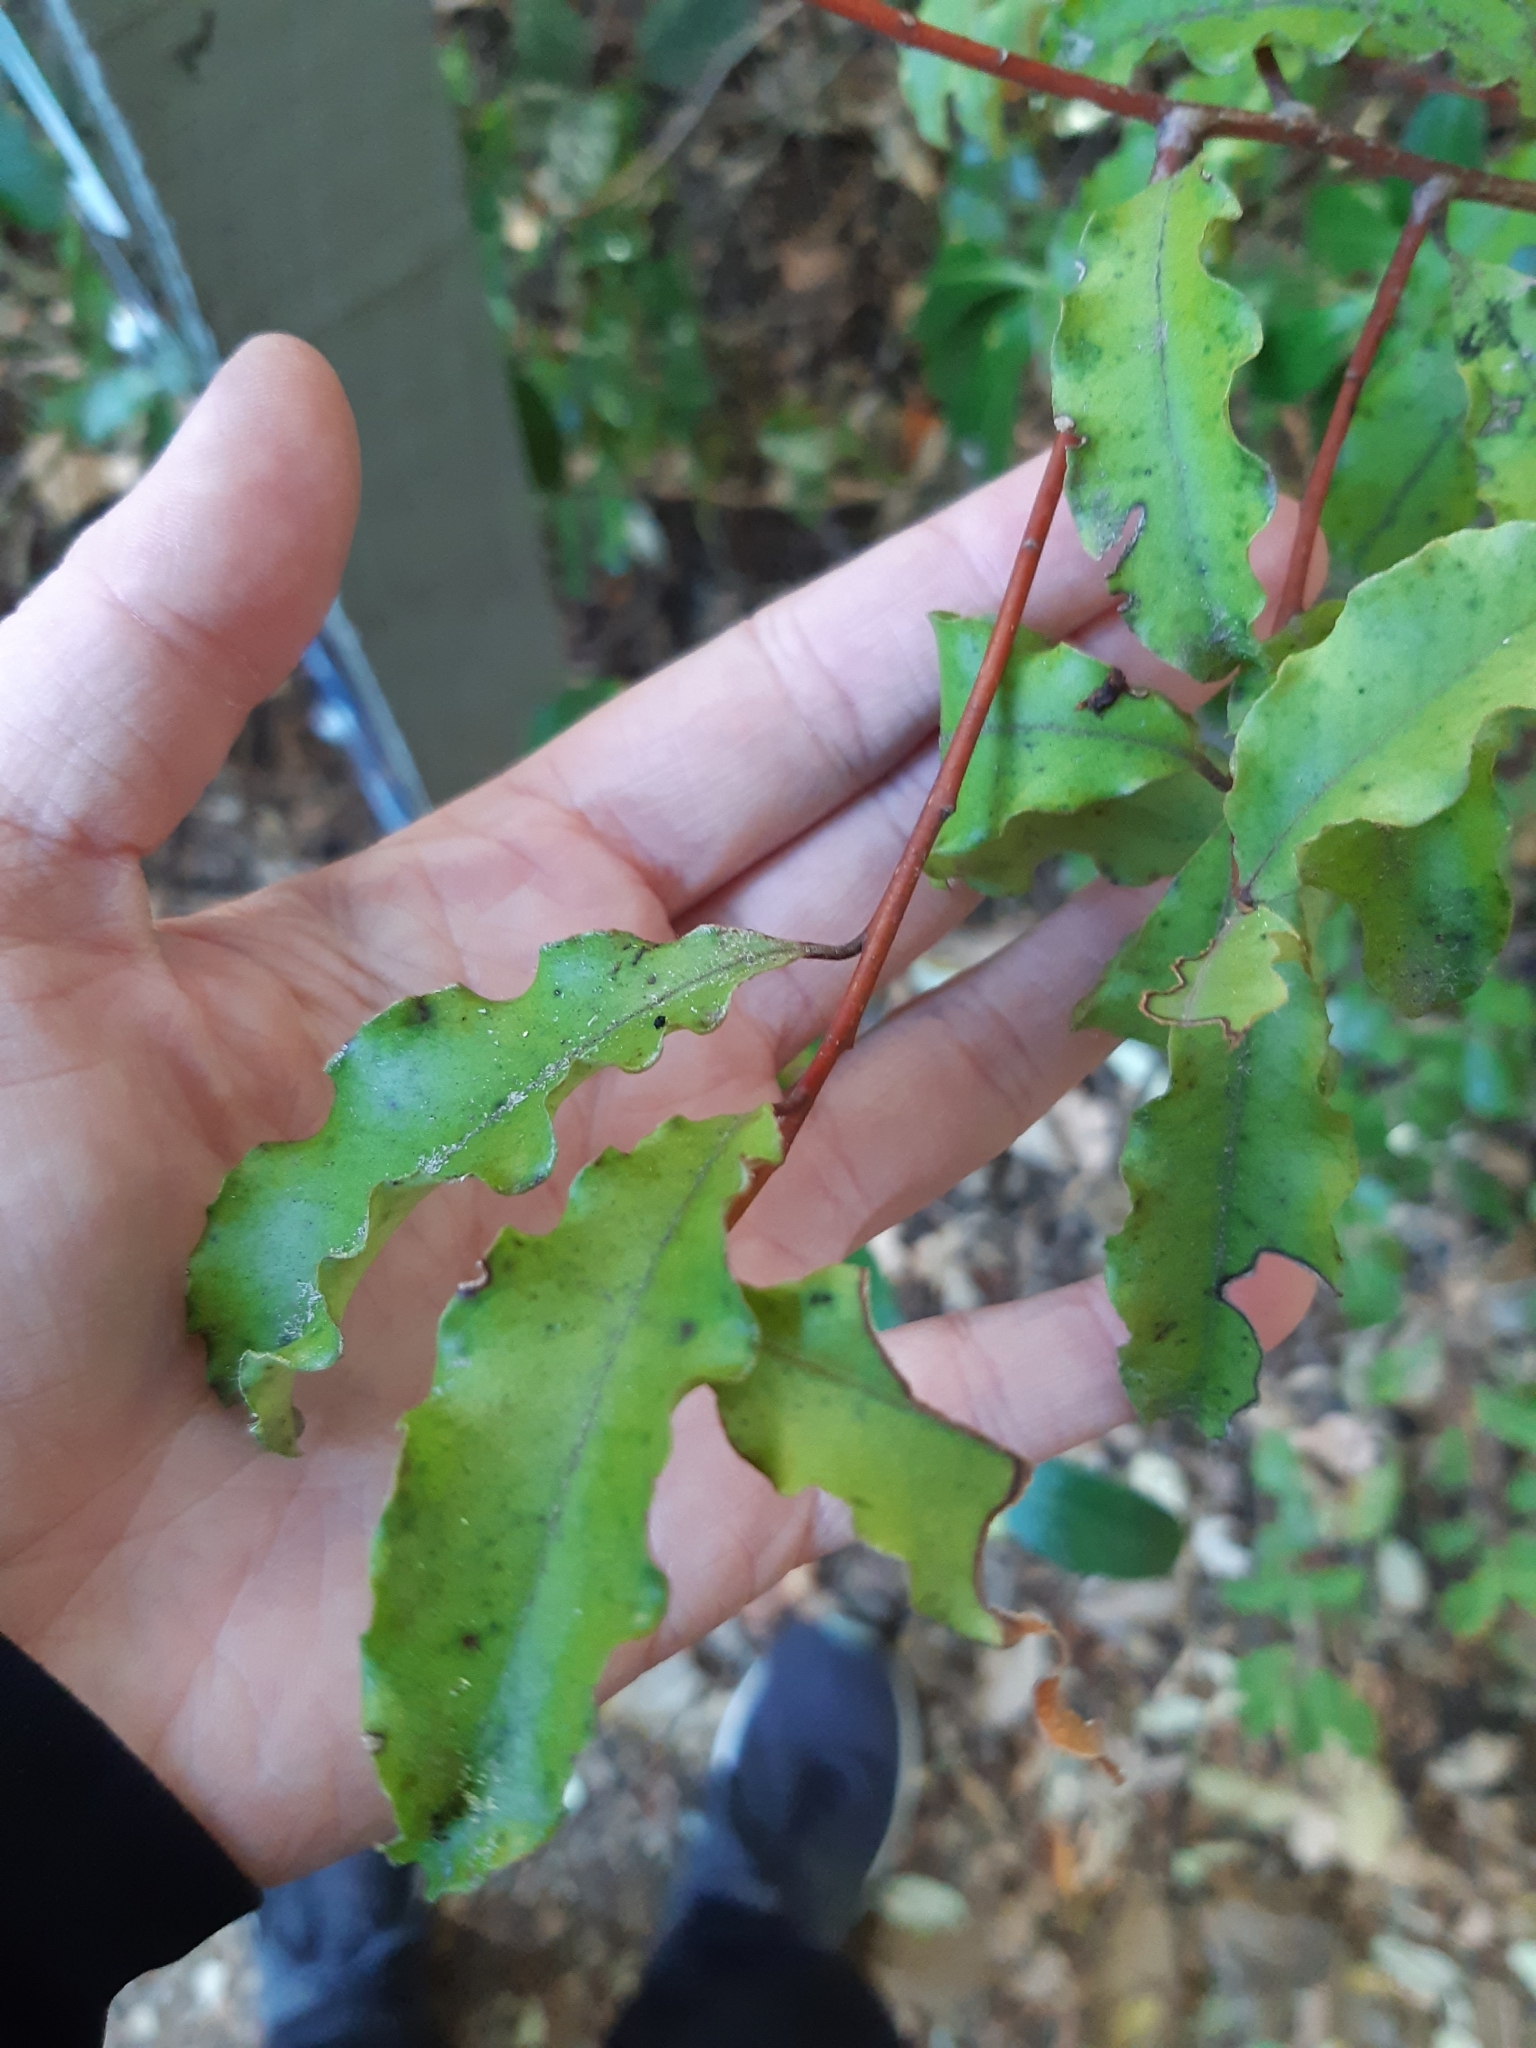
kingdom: Plantae
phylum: Tracheophyta
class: Magnoliopsida
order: Ericales
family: Primulaceae
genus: Myrsine
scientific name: Myrsine australis
